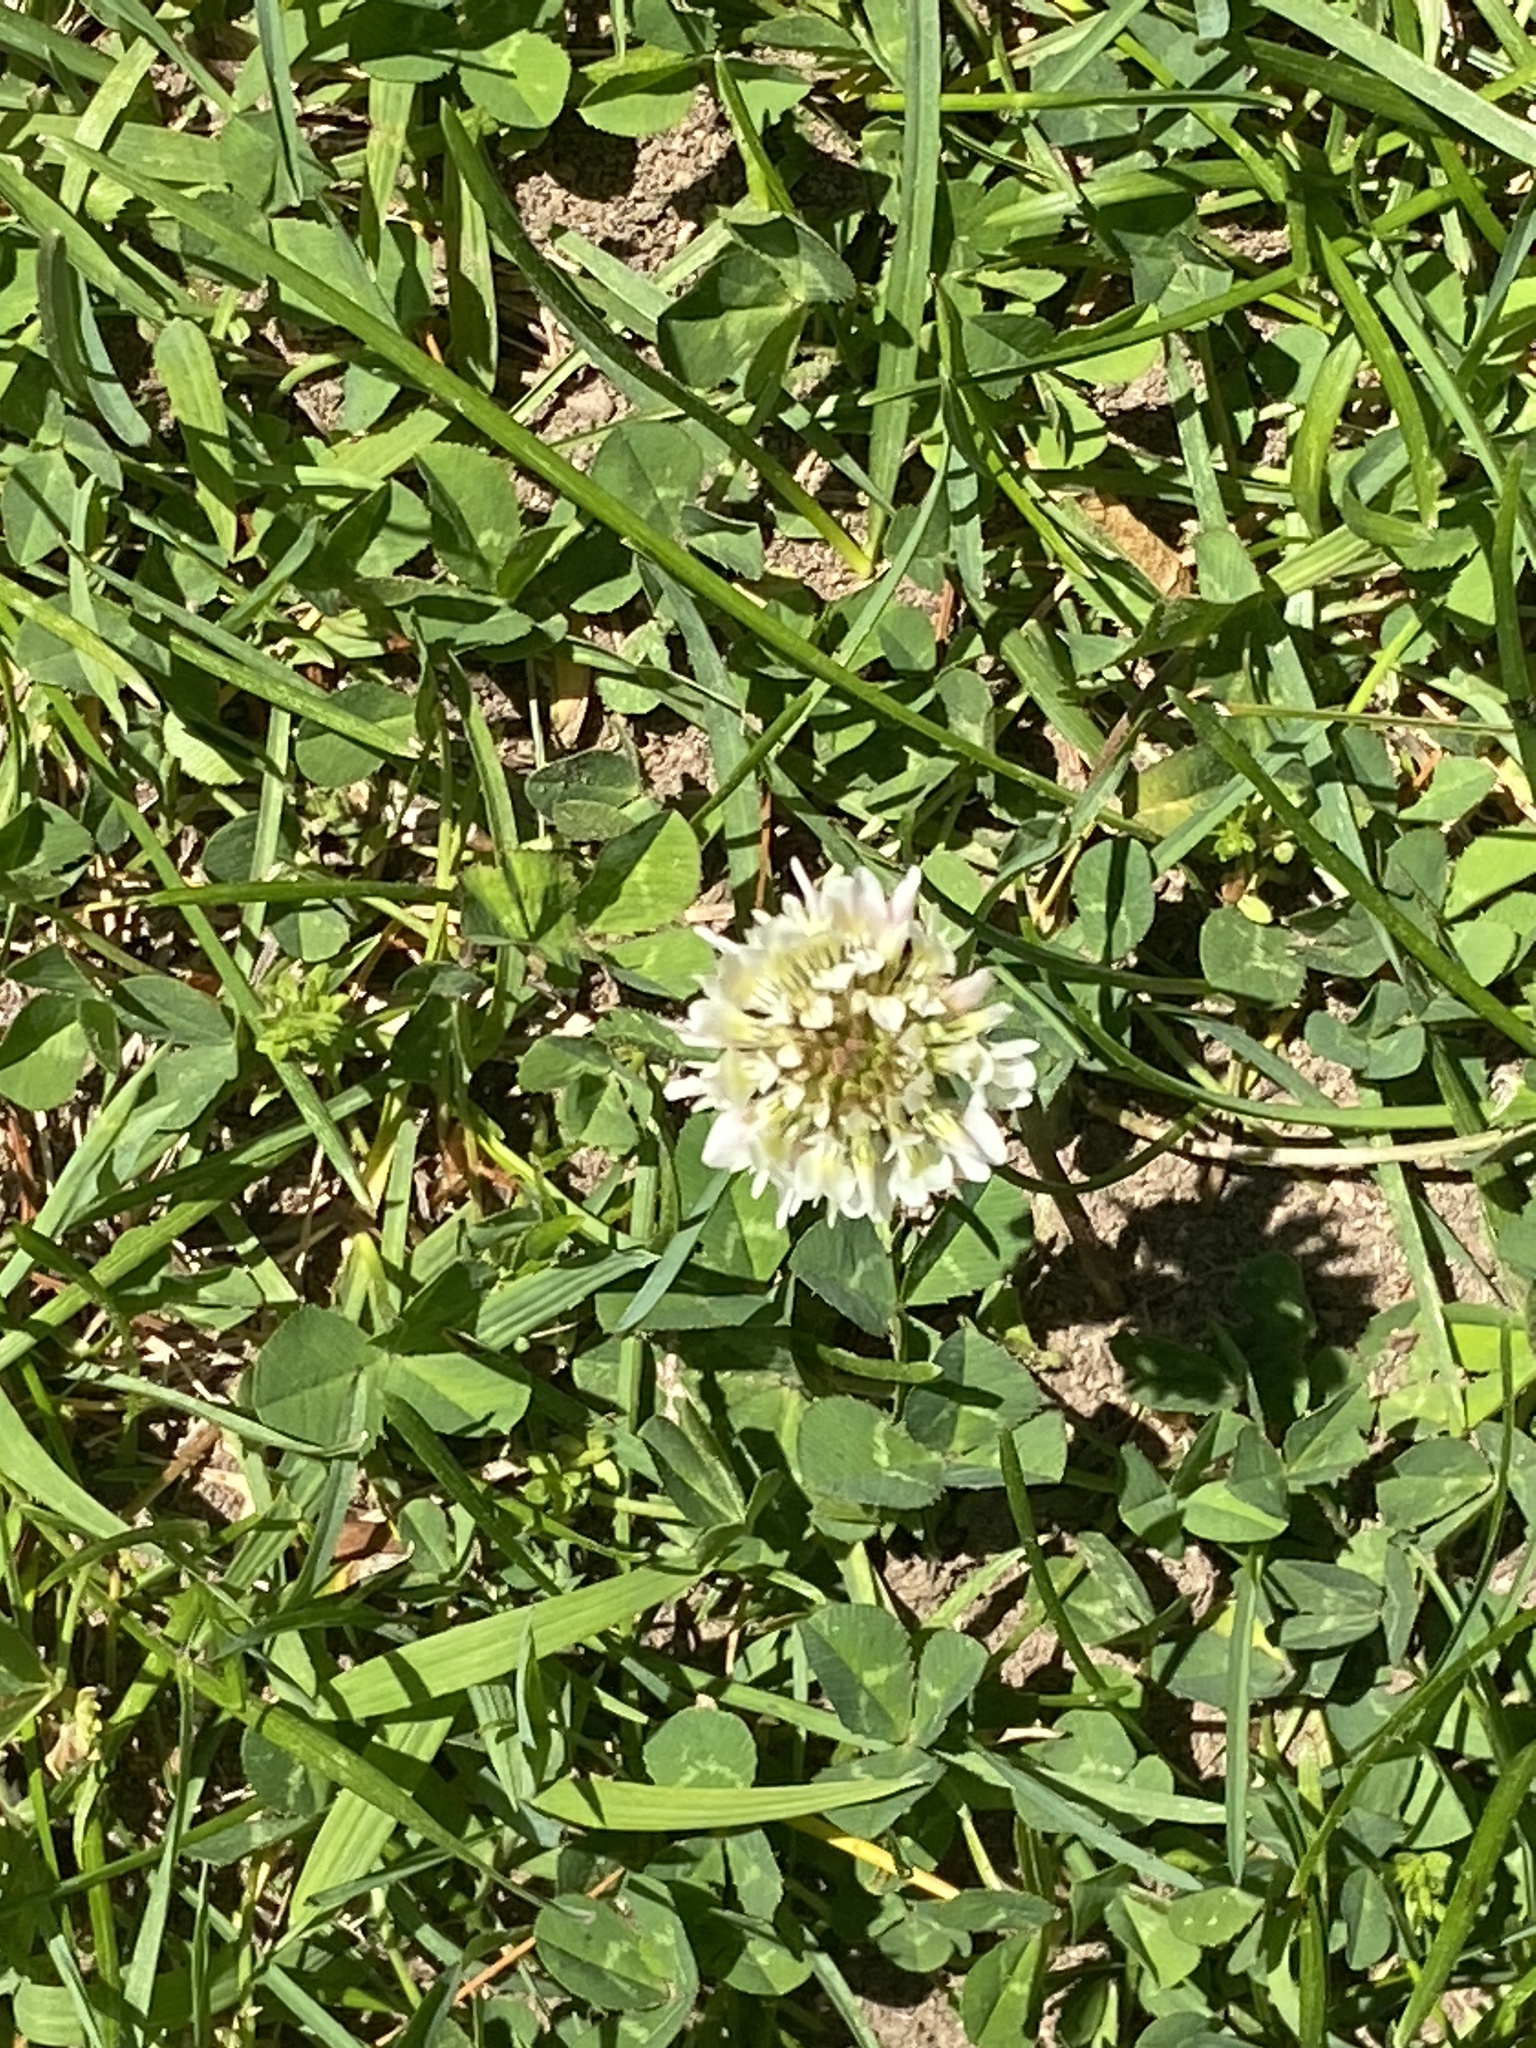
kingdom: Plantae
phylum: Tracheophyta
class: Magnoliopsida
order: Fabales
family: Fabaceae
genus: Trifolium
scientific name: Trifolium repens
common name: White clover
